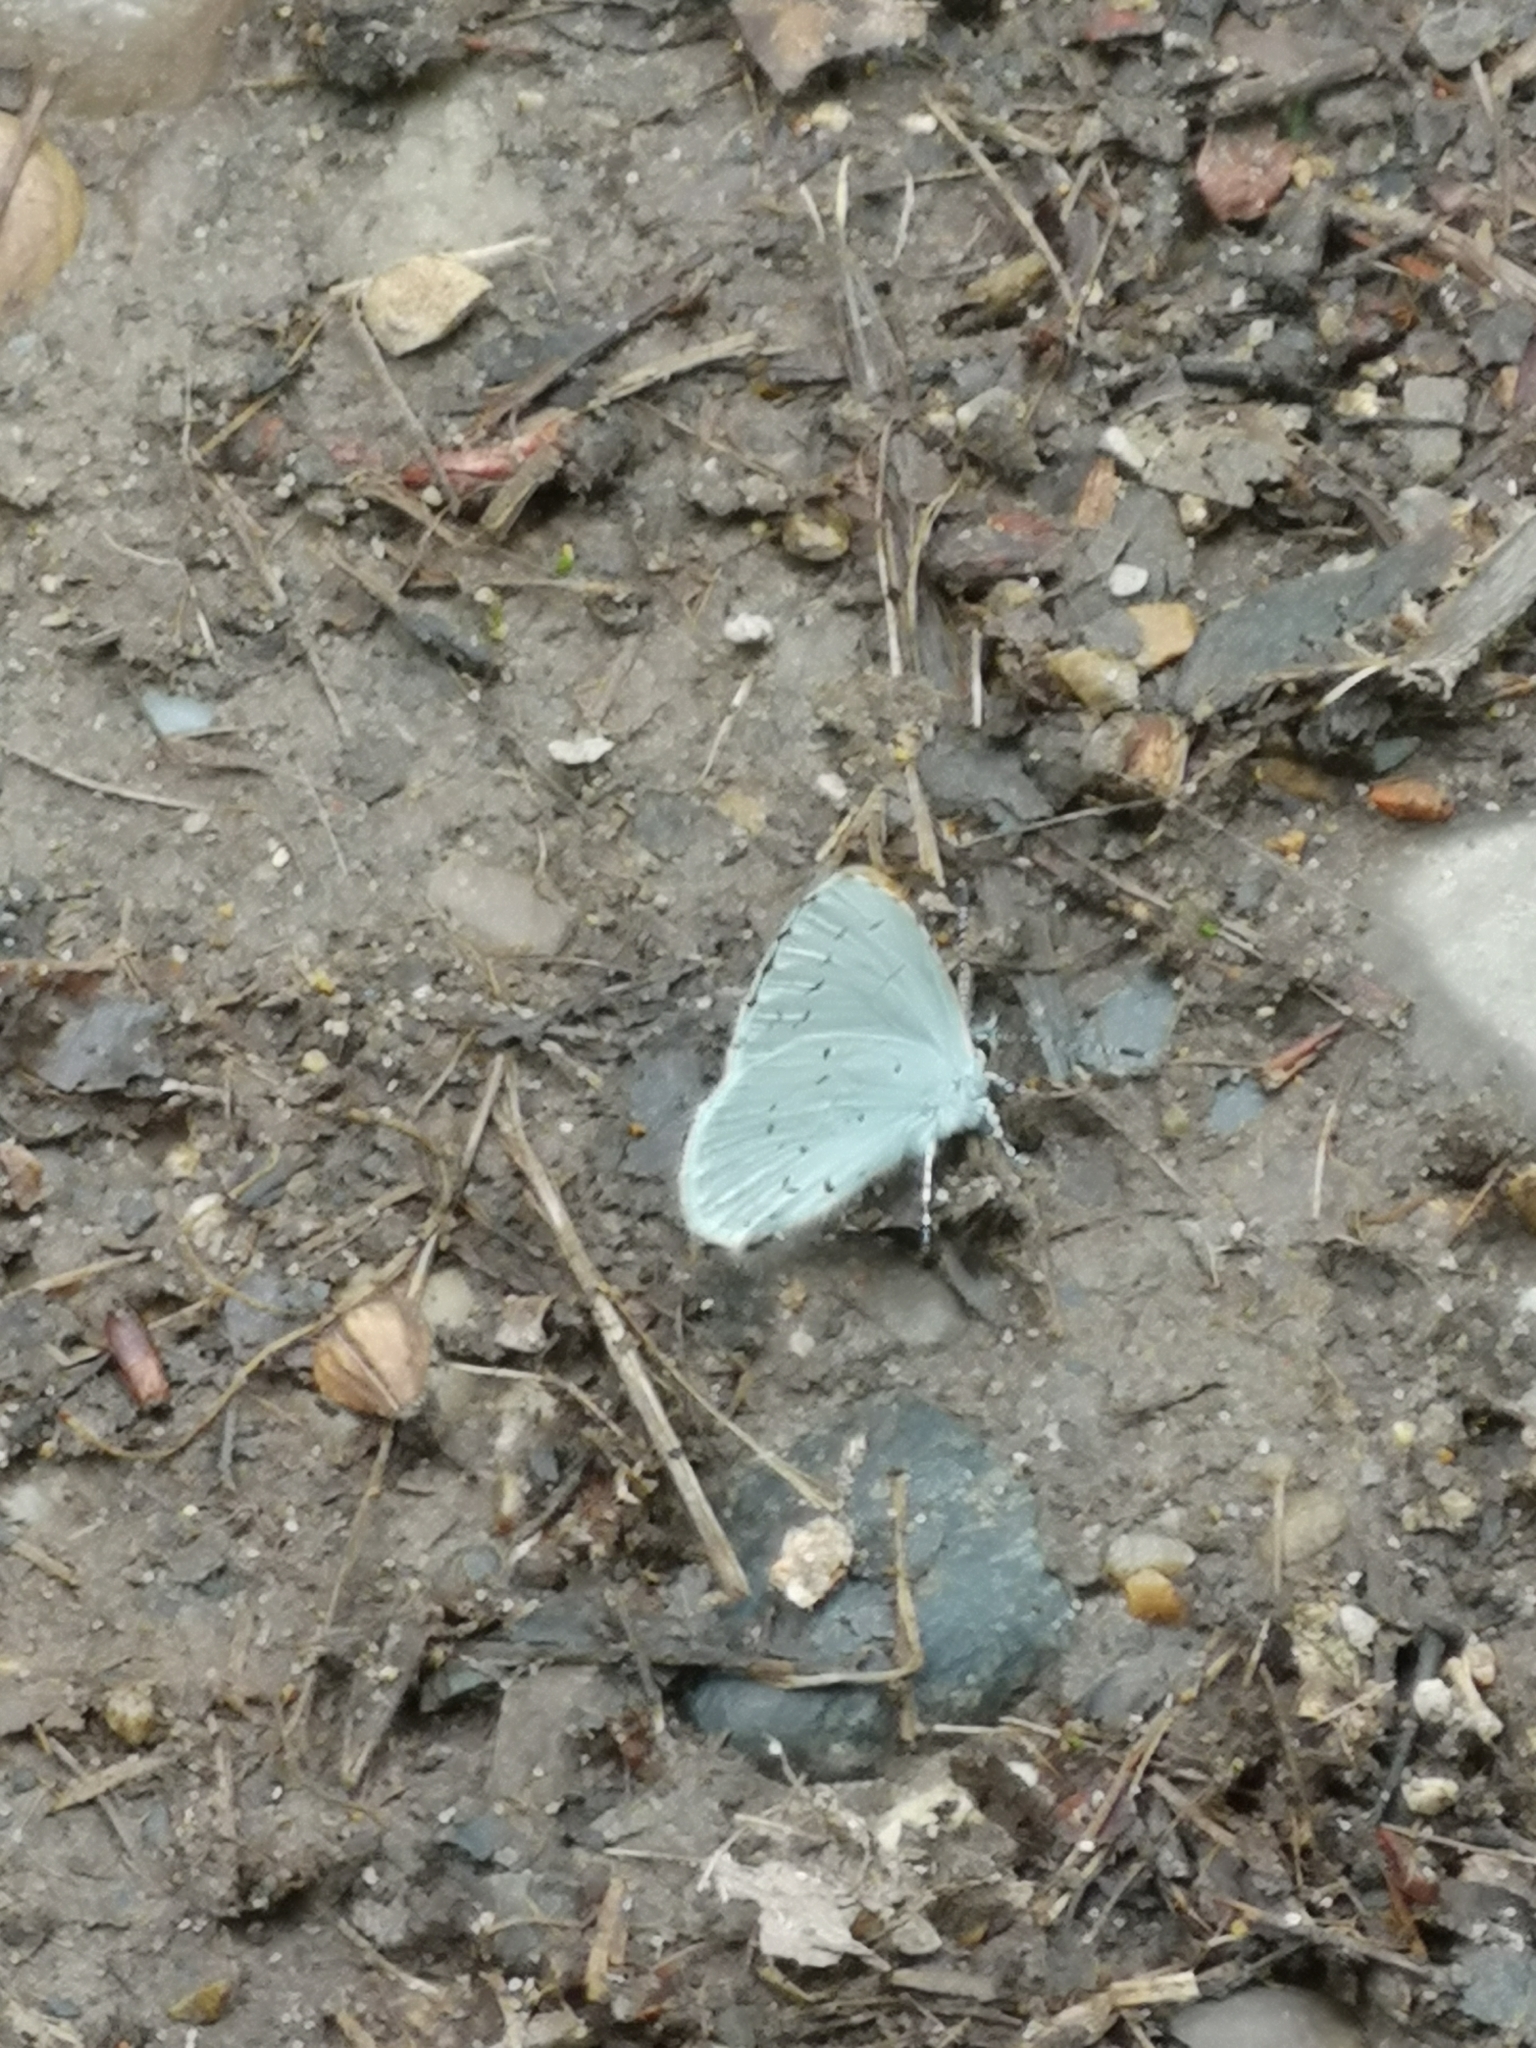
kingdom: Animalia
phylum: Arthropoda
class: Insecta
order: Lepidoptera
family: Lycaenidae
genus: Celastrina
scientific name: Celastrina argiolus
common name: Holly blue
